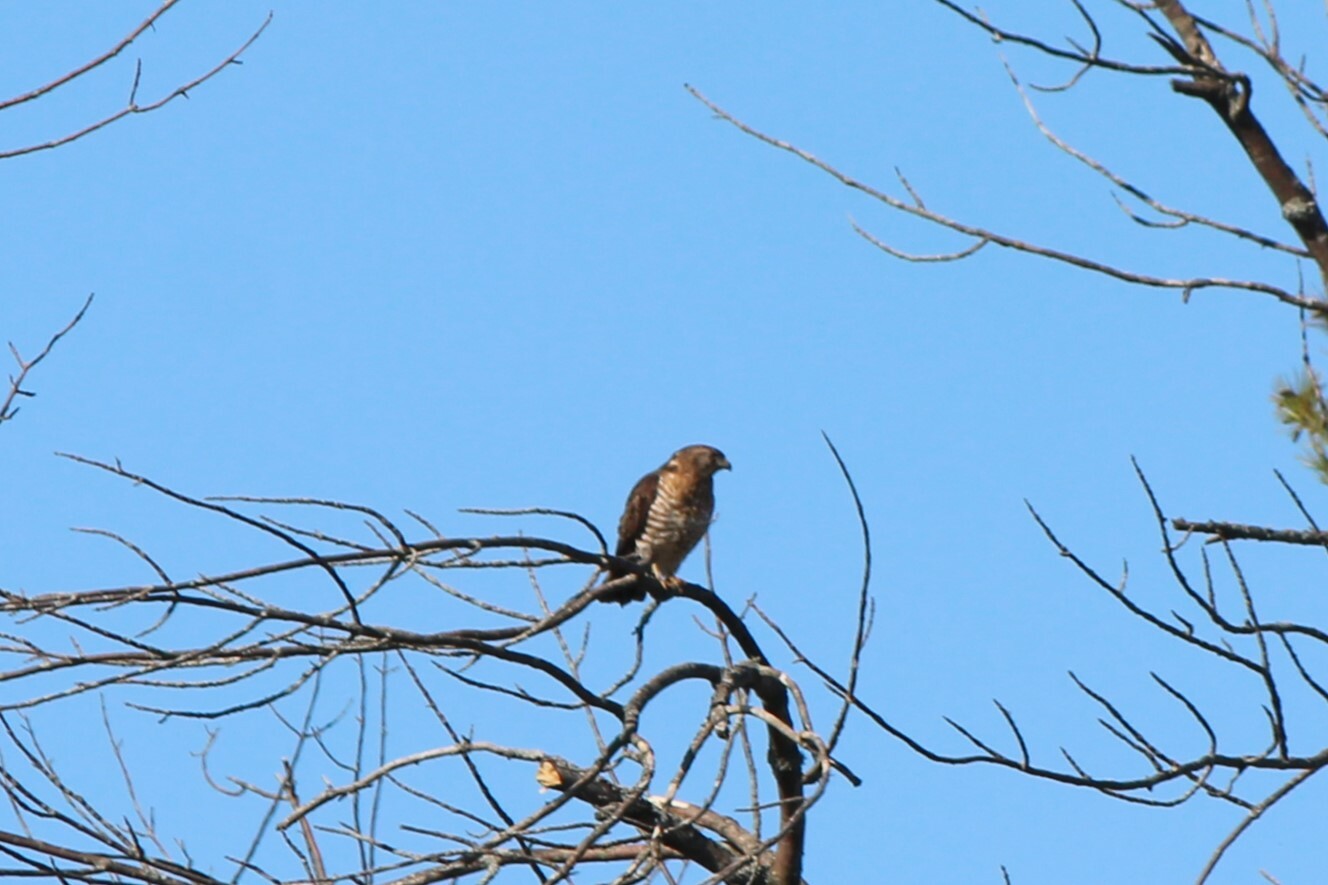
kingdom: Animalia
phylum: Chordata
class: Aves
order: Accipitriformes
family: Accipitridae
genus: Buteo
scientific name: Buteo platypterus
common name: Broad-winged hawk
